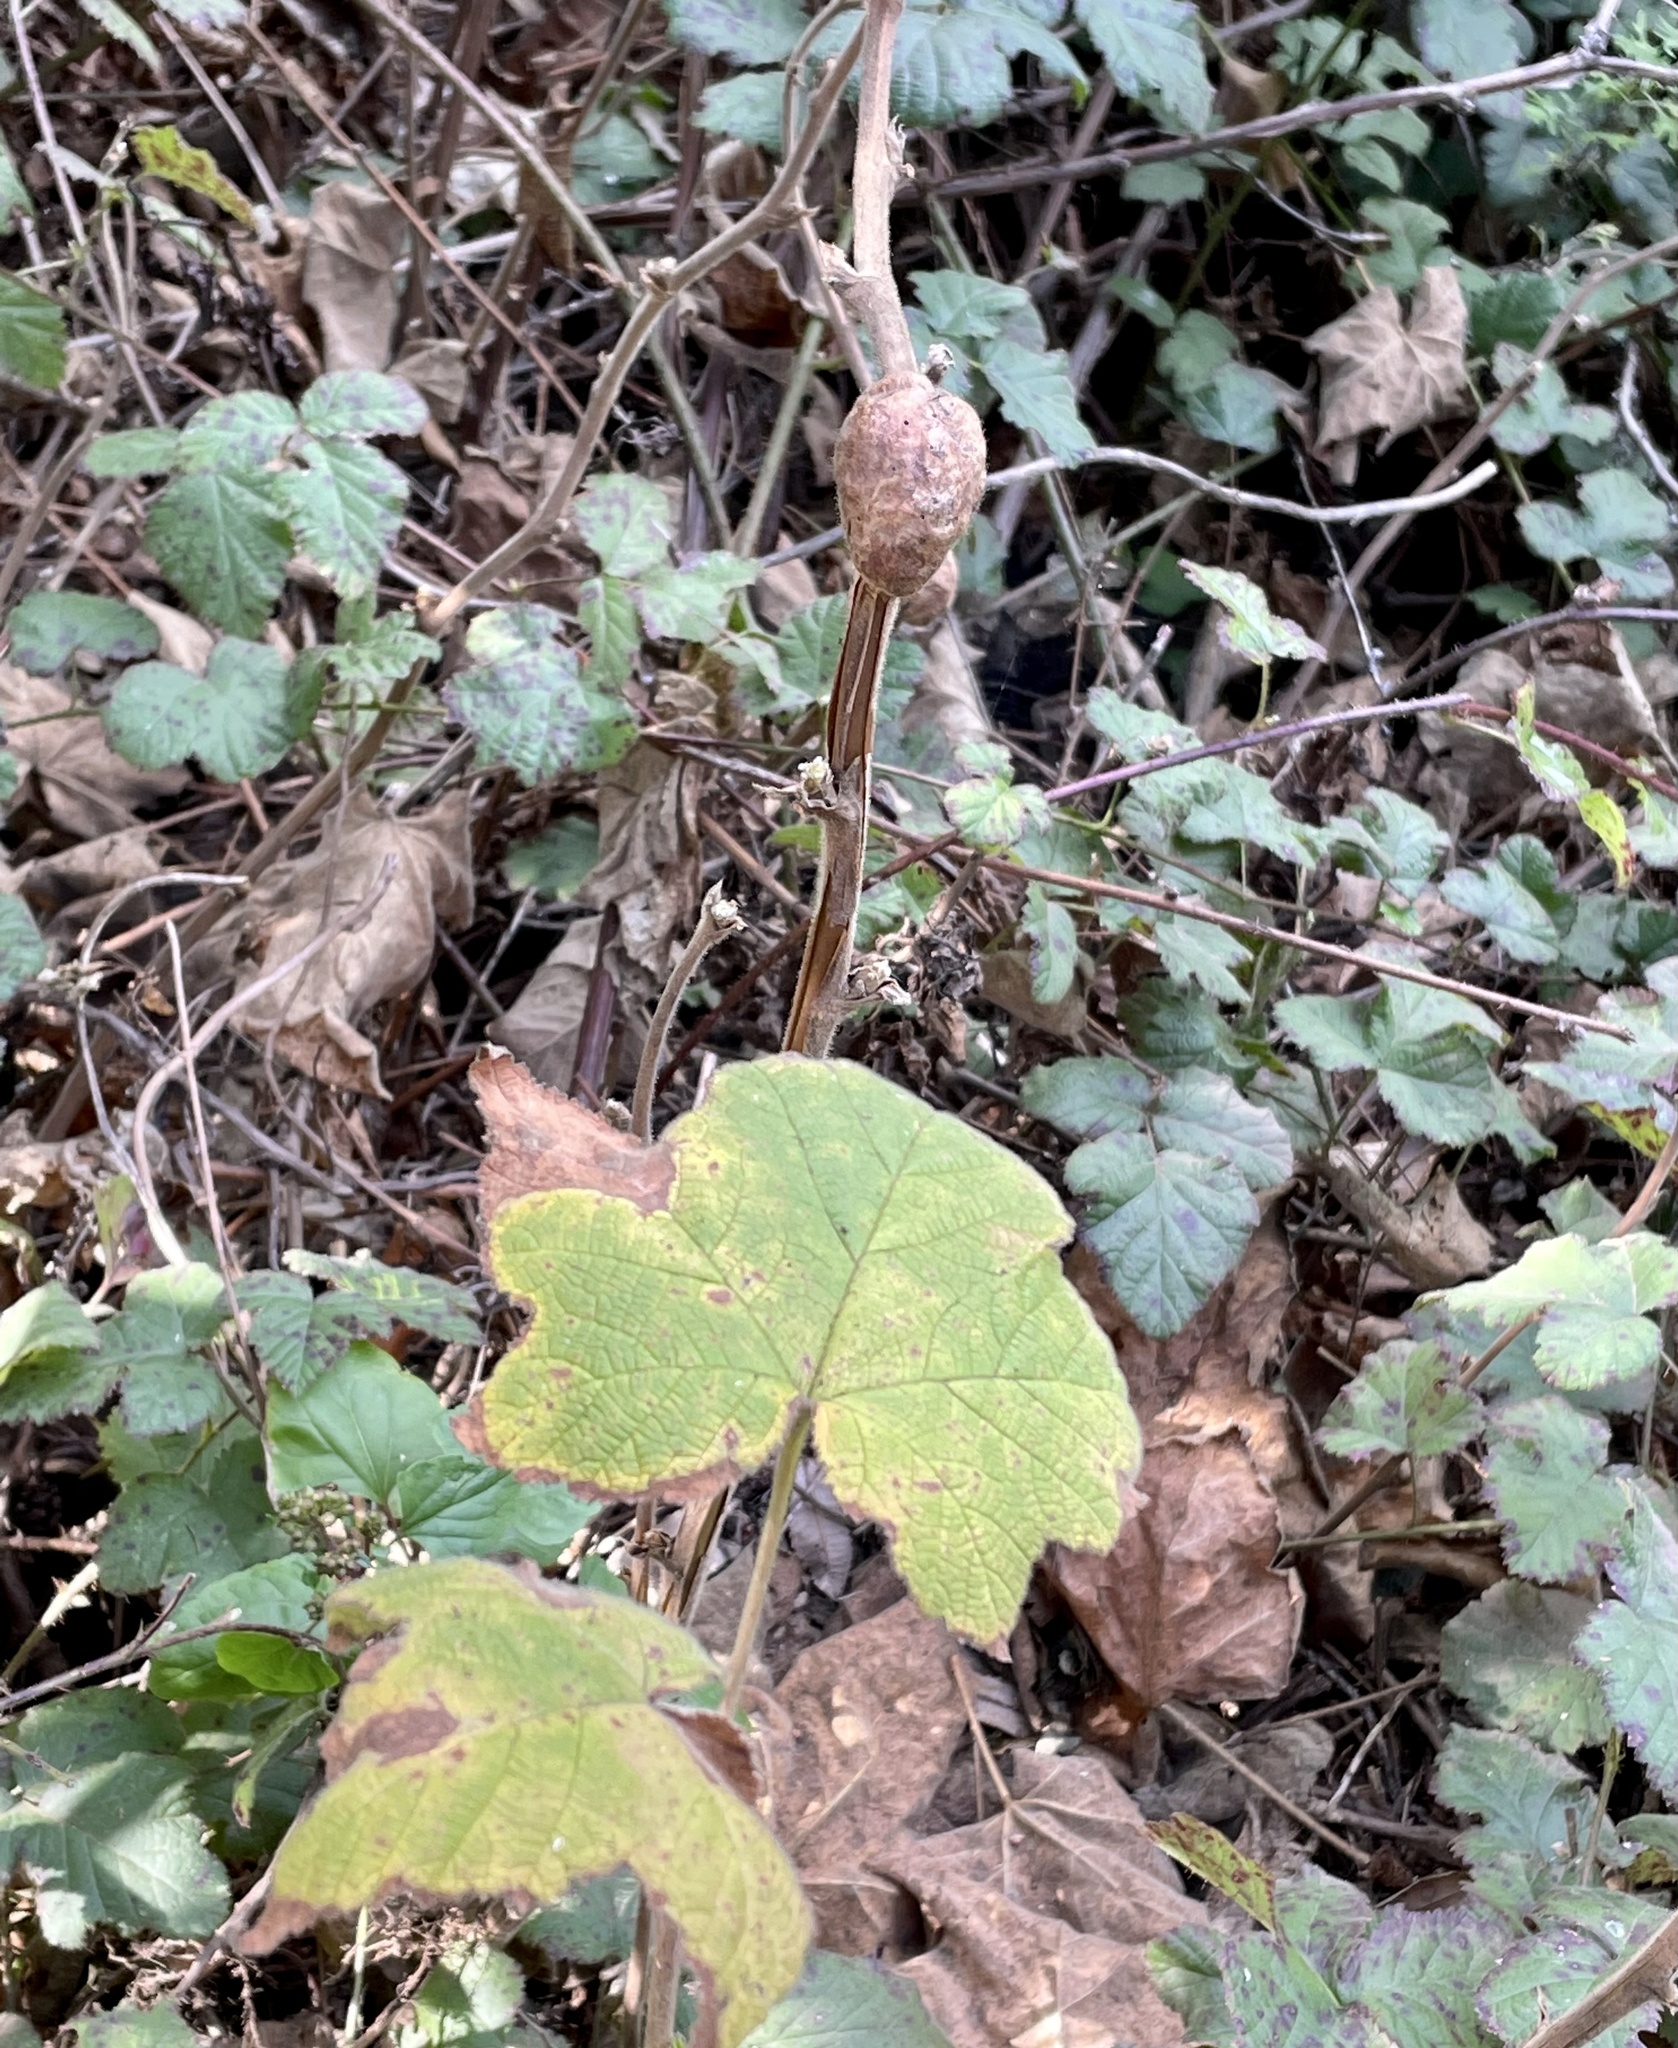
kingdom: Animalia
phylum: Arthropoda
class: Insecta
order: Hymenoptera
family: Cynipidae
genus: Diastrophus
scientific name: Diastrophus
